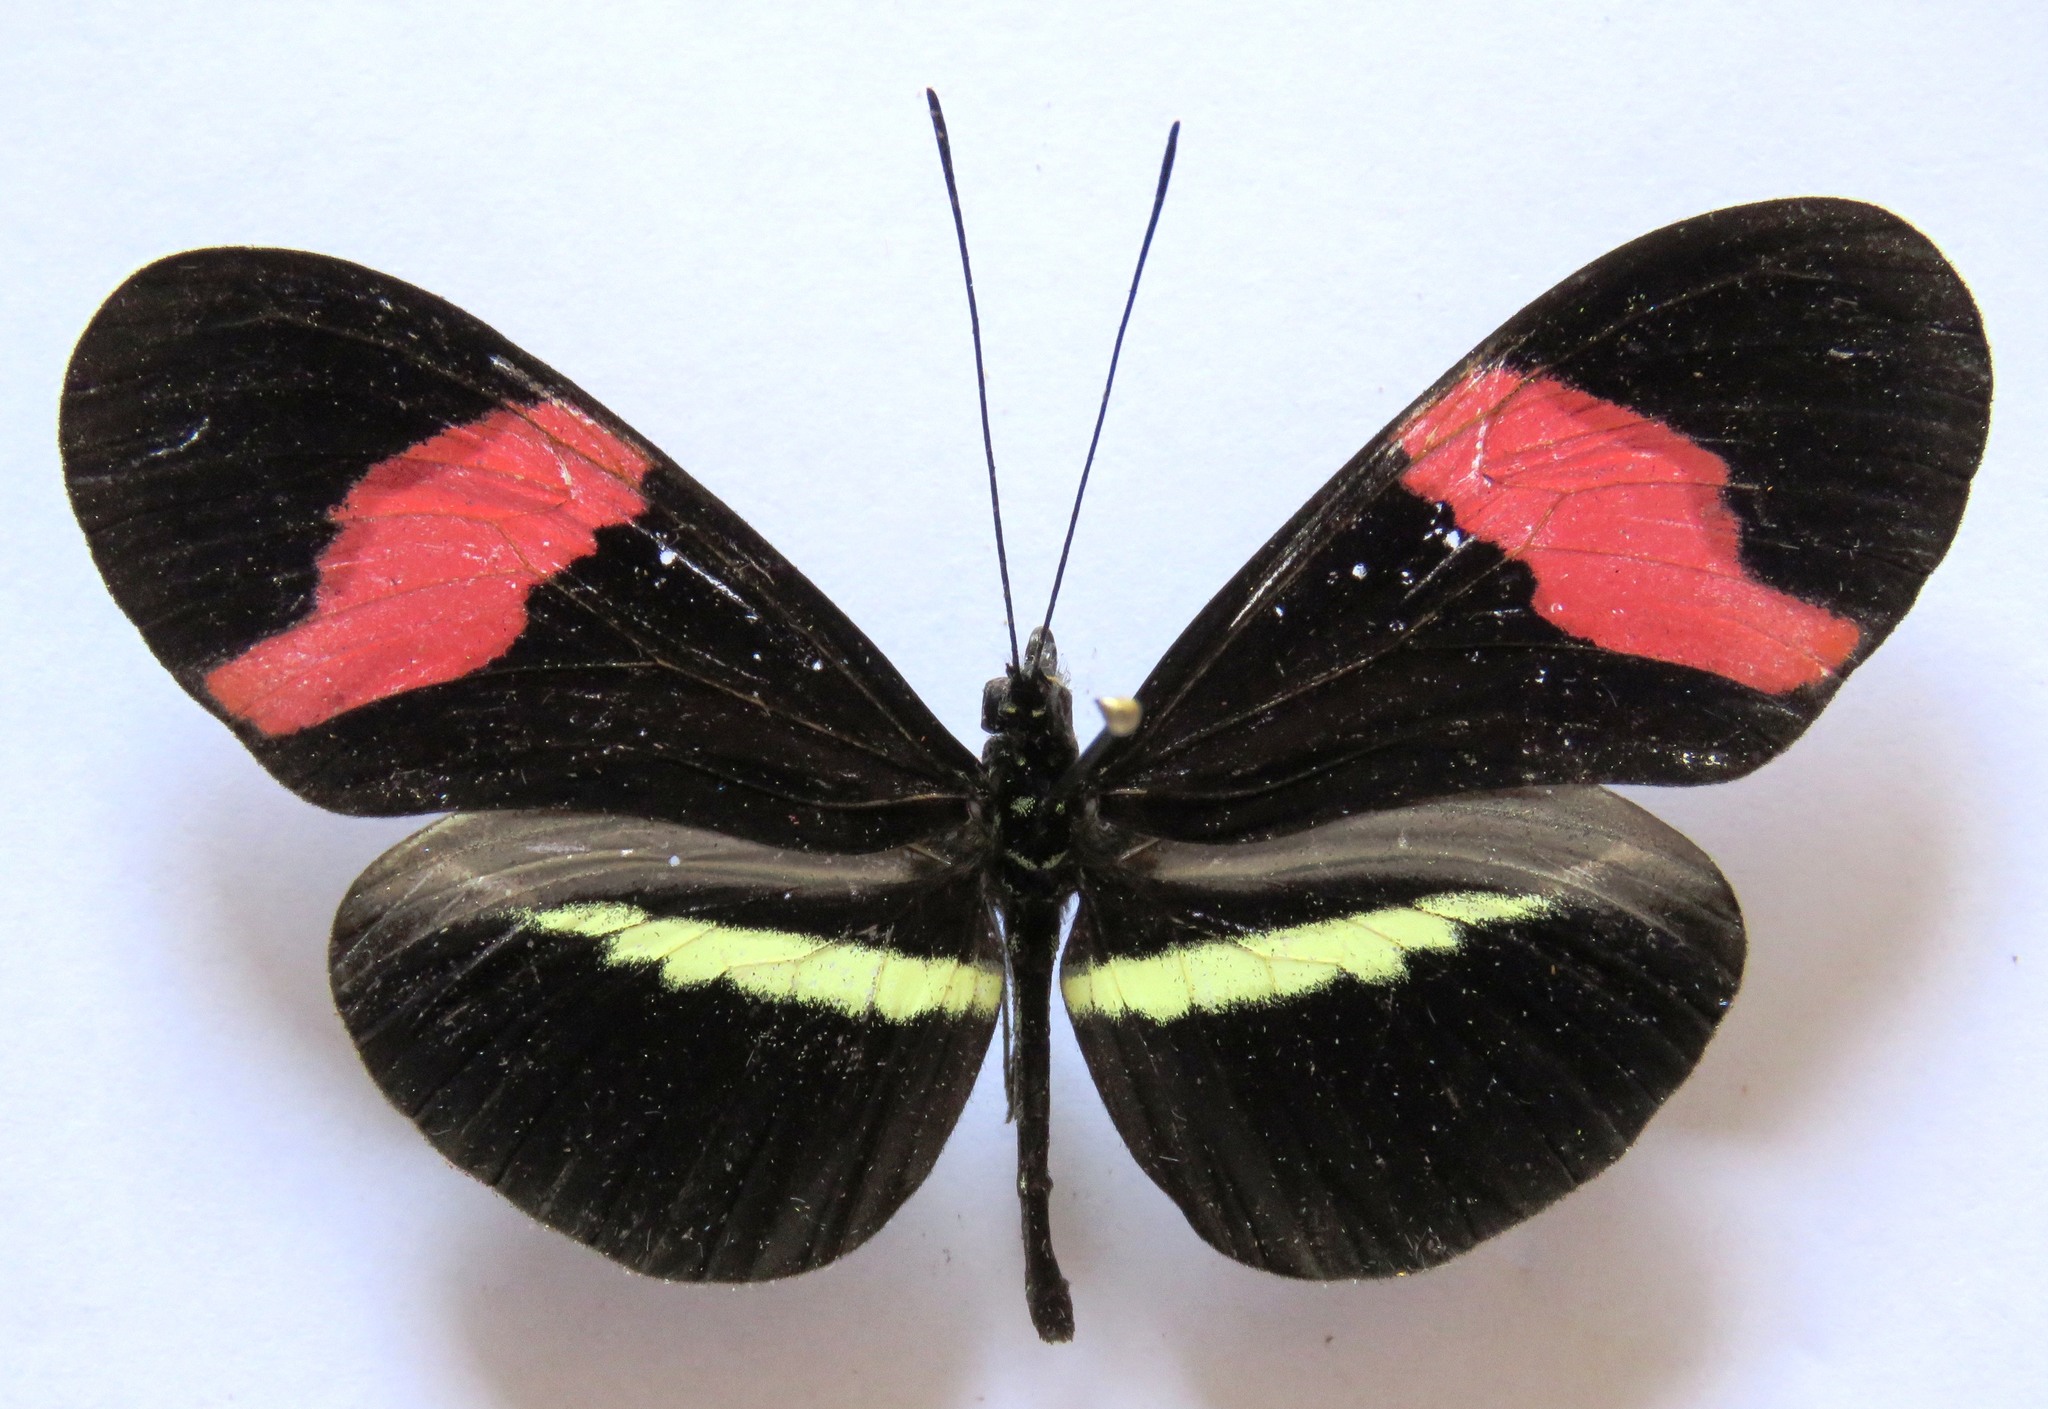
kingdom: Animalia
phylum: Arthropoda
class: Insecta
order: Lepidoptera
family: Nymphalidae
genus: Tirumala
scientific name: Tirumala petiverana
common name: Blue monarch
